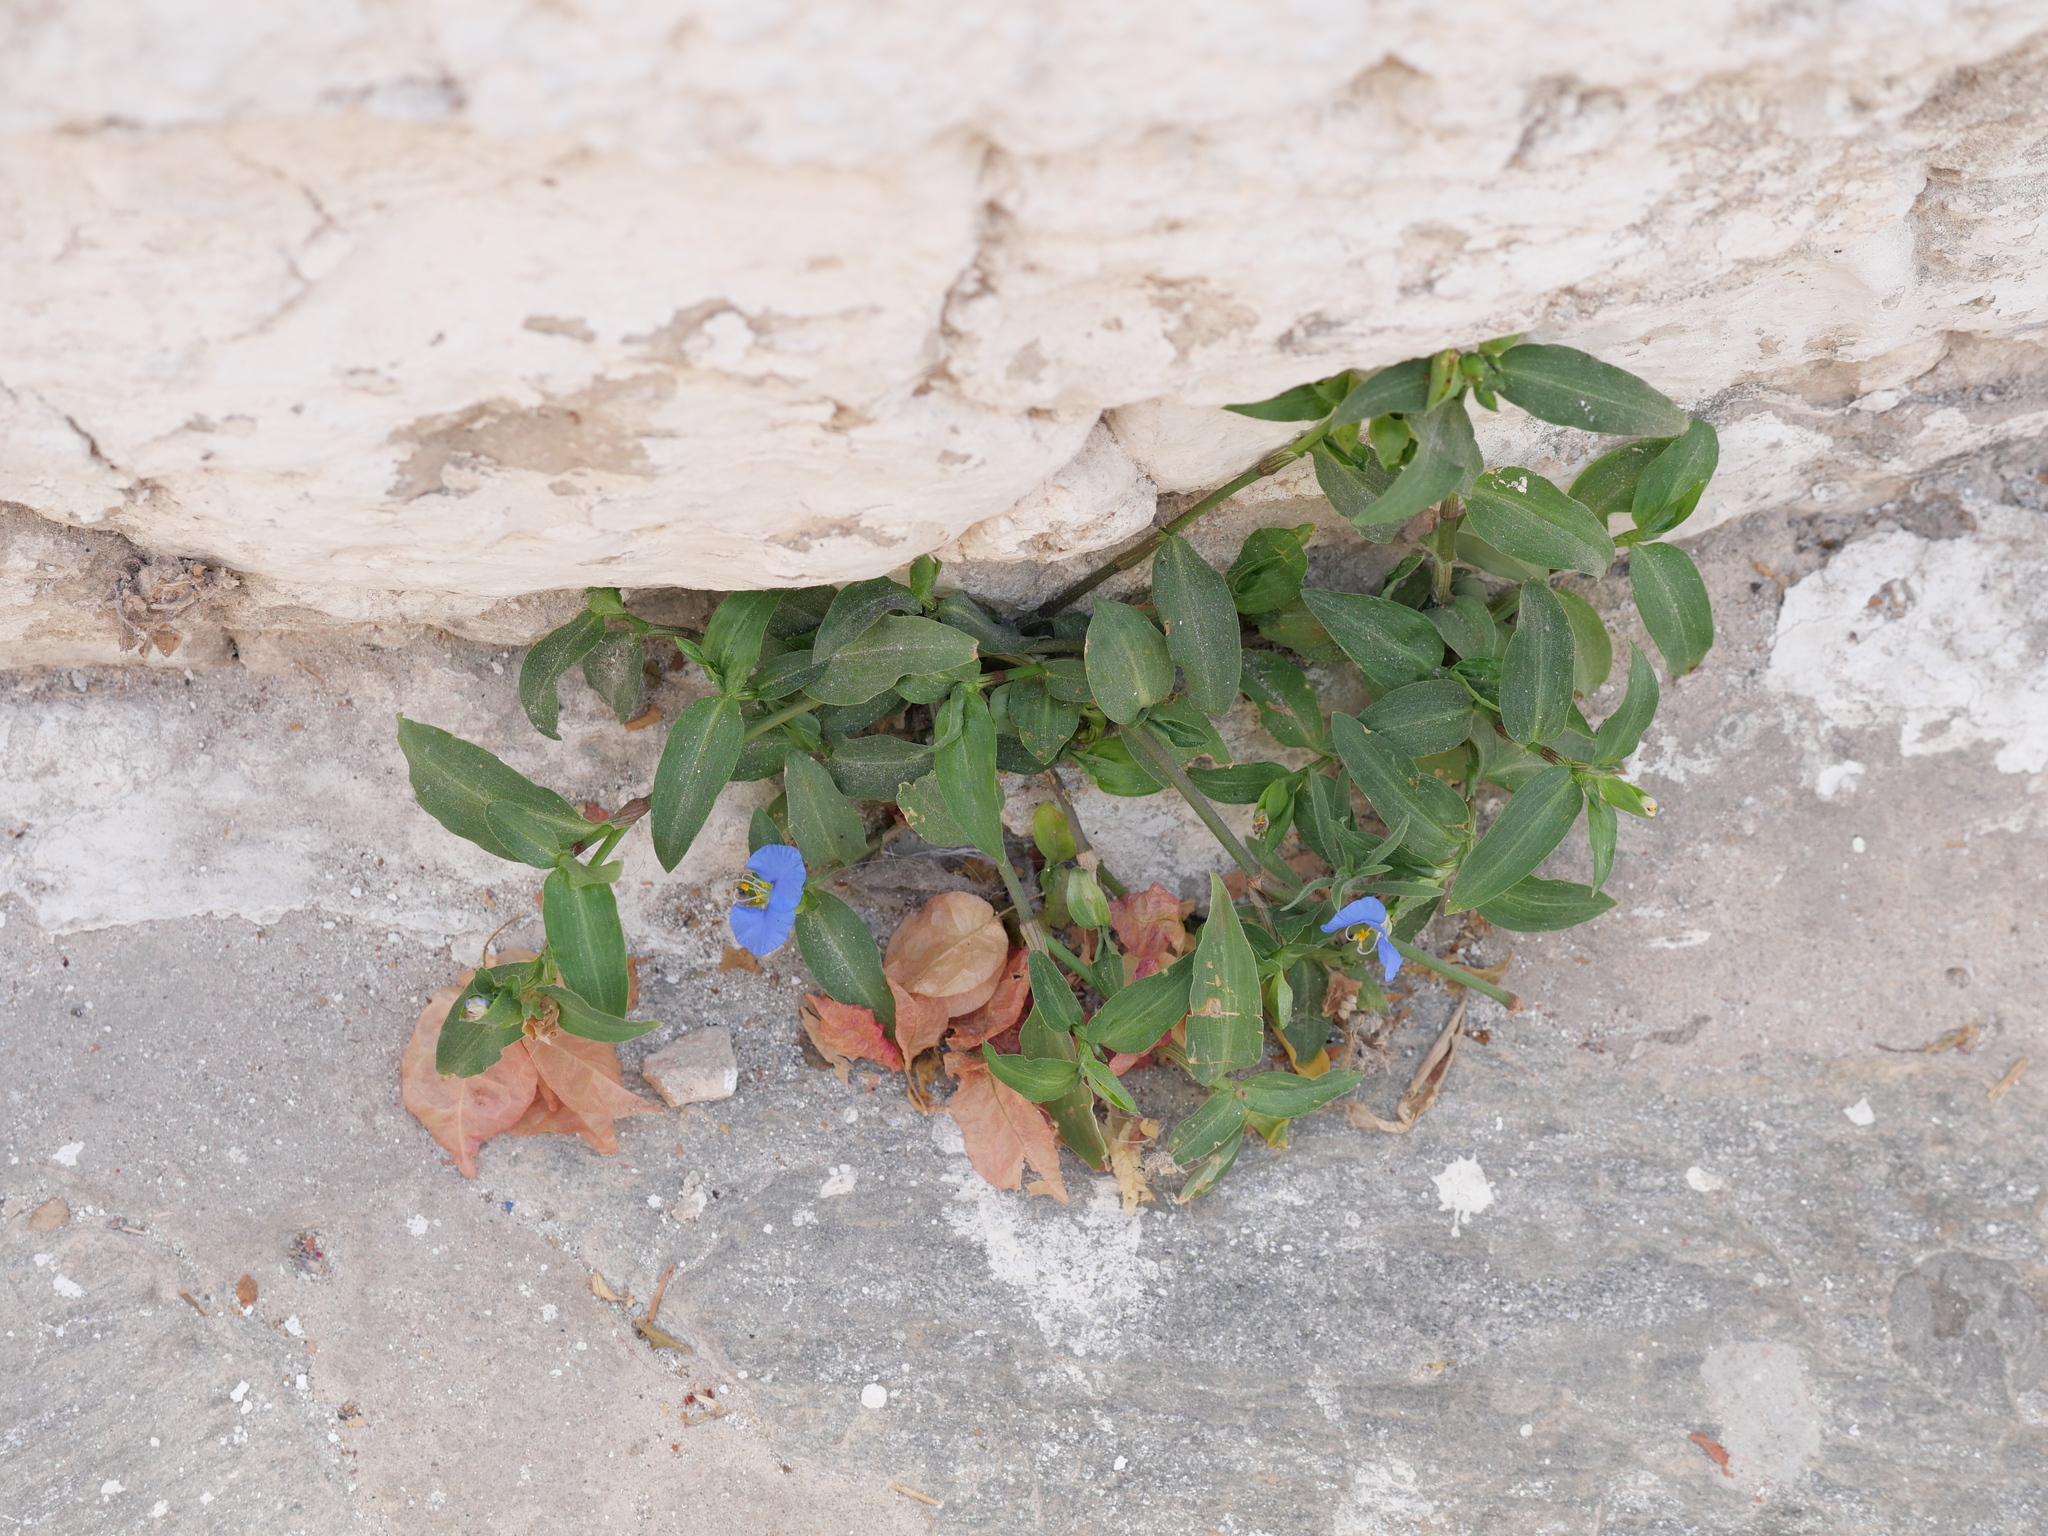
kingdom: Plantae
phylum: Tracheophyta
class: Liliopsida
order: Commelinales
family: Commelinaceae
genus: Commelina
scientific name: Commelina erecta
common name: Blousel blommetjie
